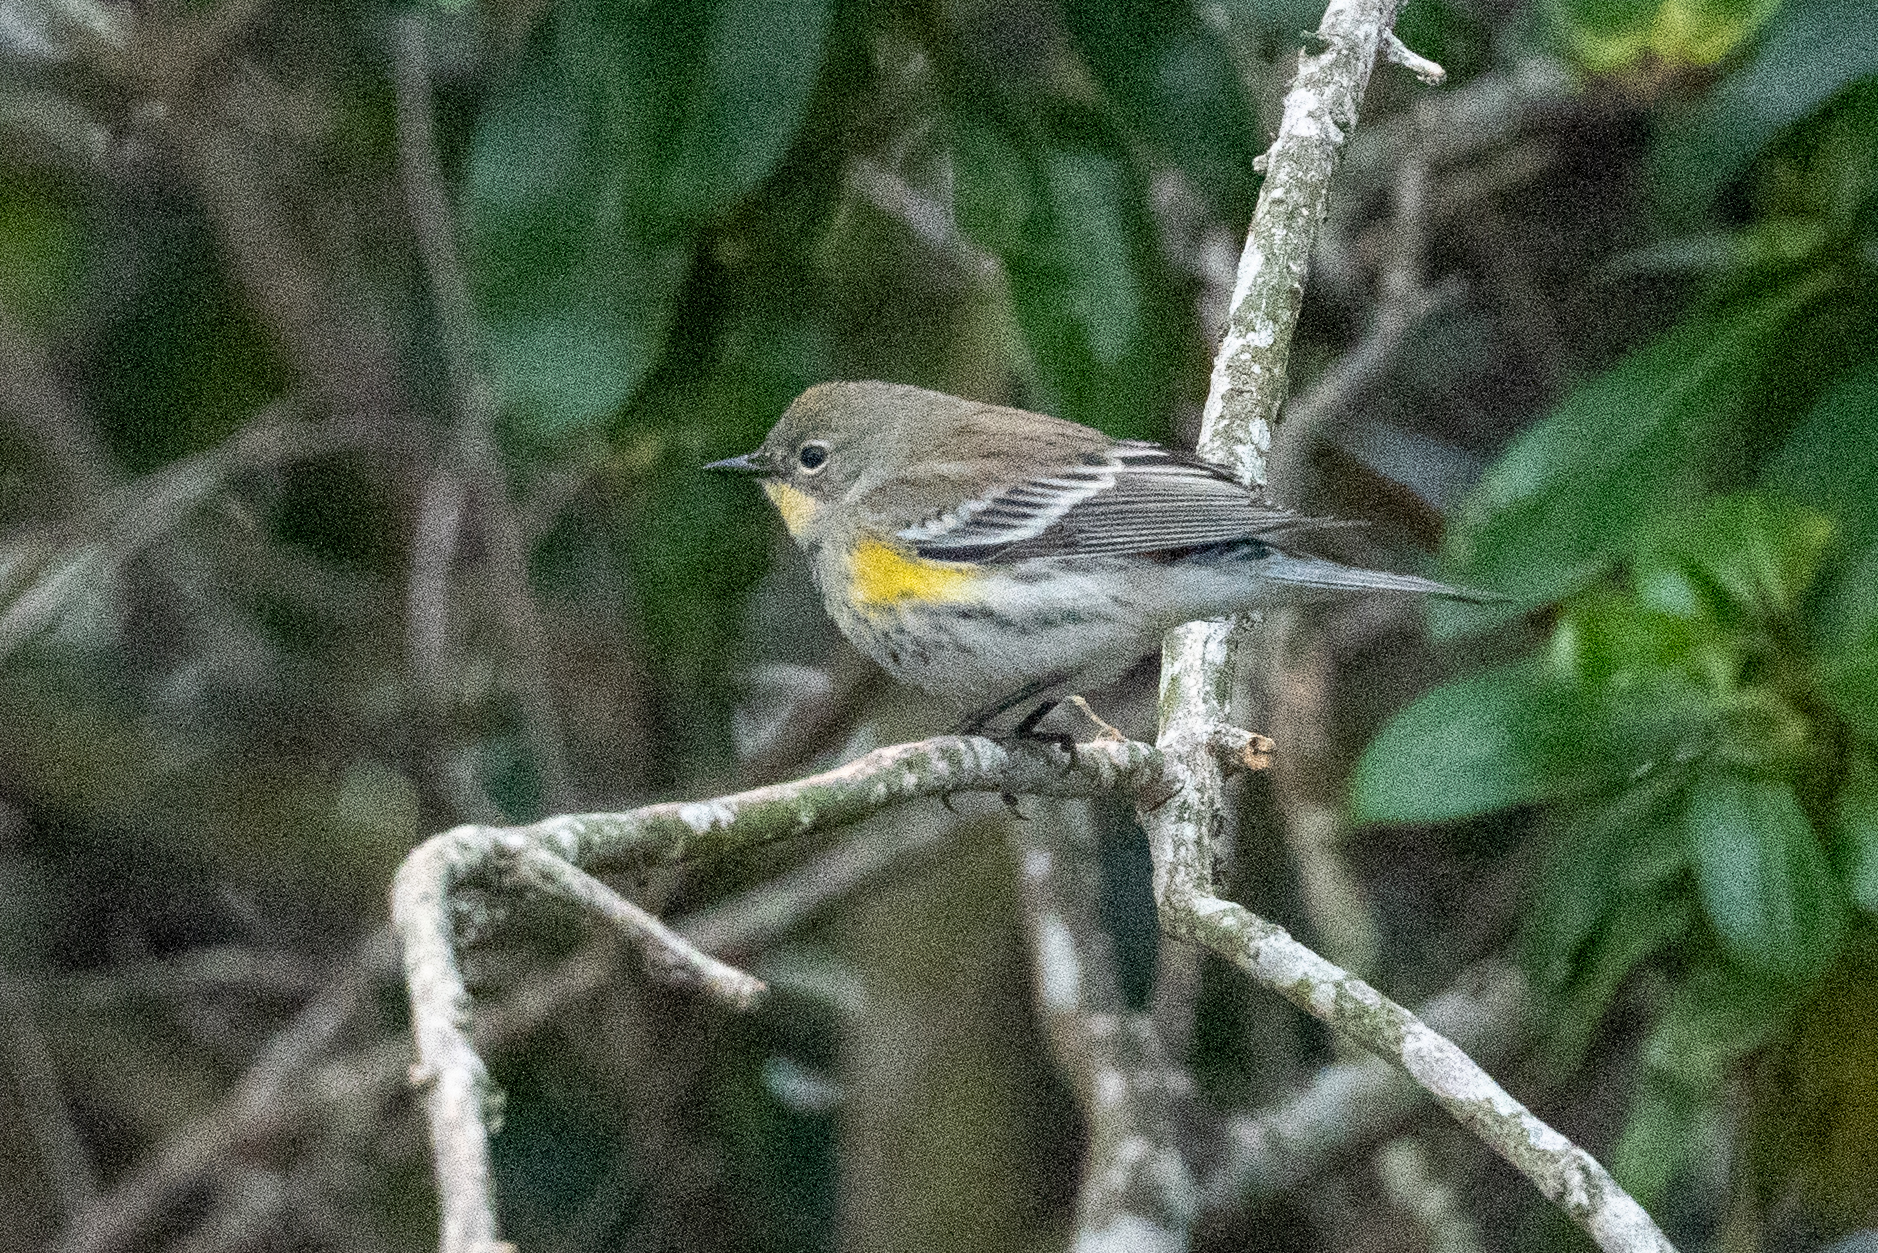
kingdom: Animalia
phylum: Chordata
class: Aves
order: Passeriformes
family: Parulidae
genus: Setophaga
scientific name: Setophaga coronata
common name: Myrtle warbler
